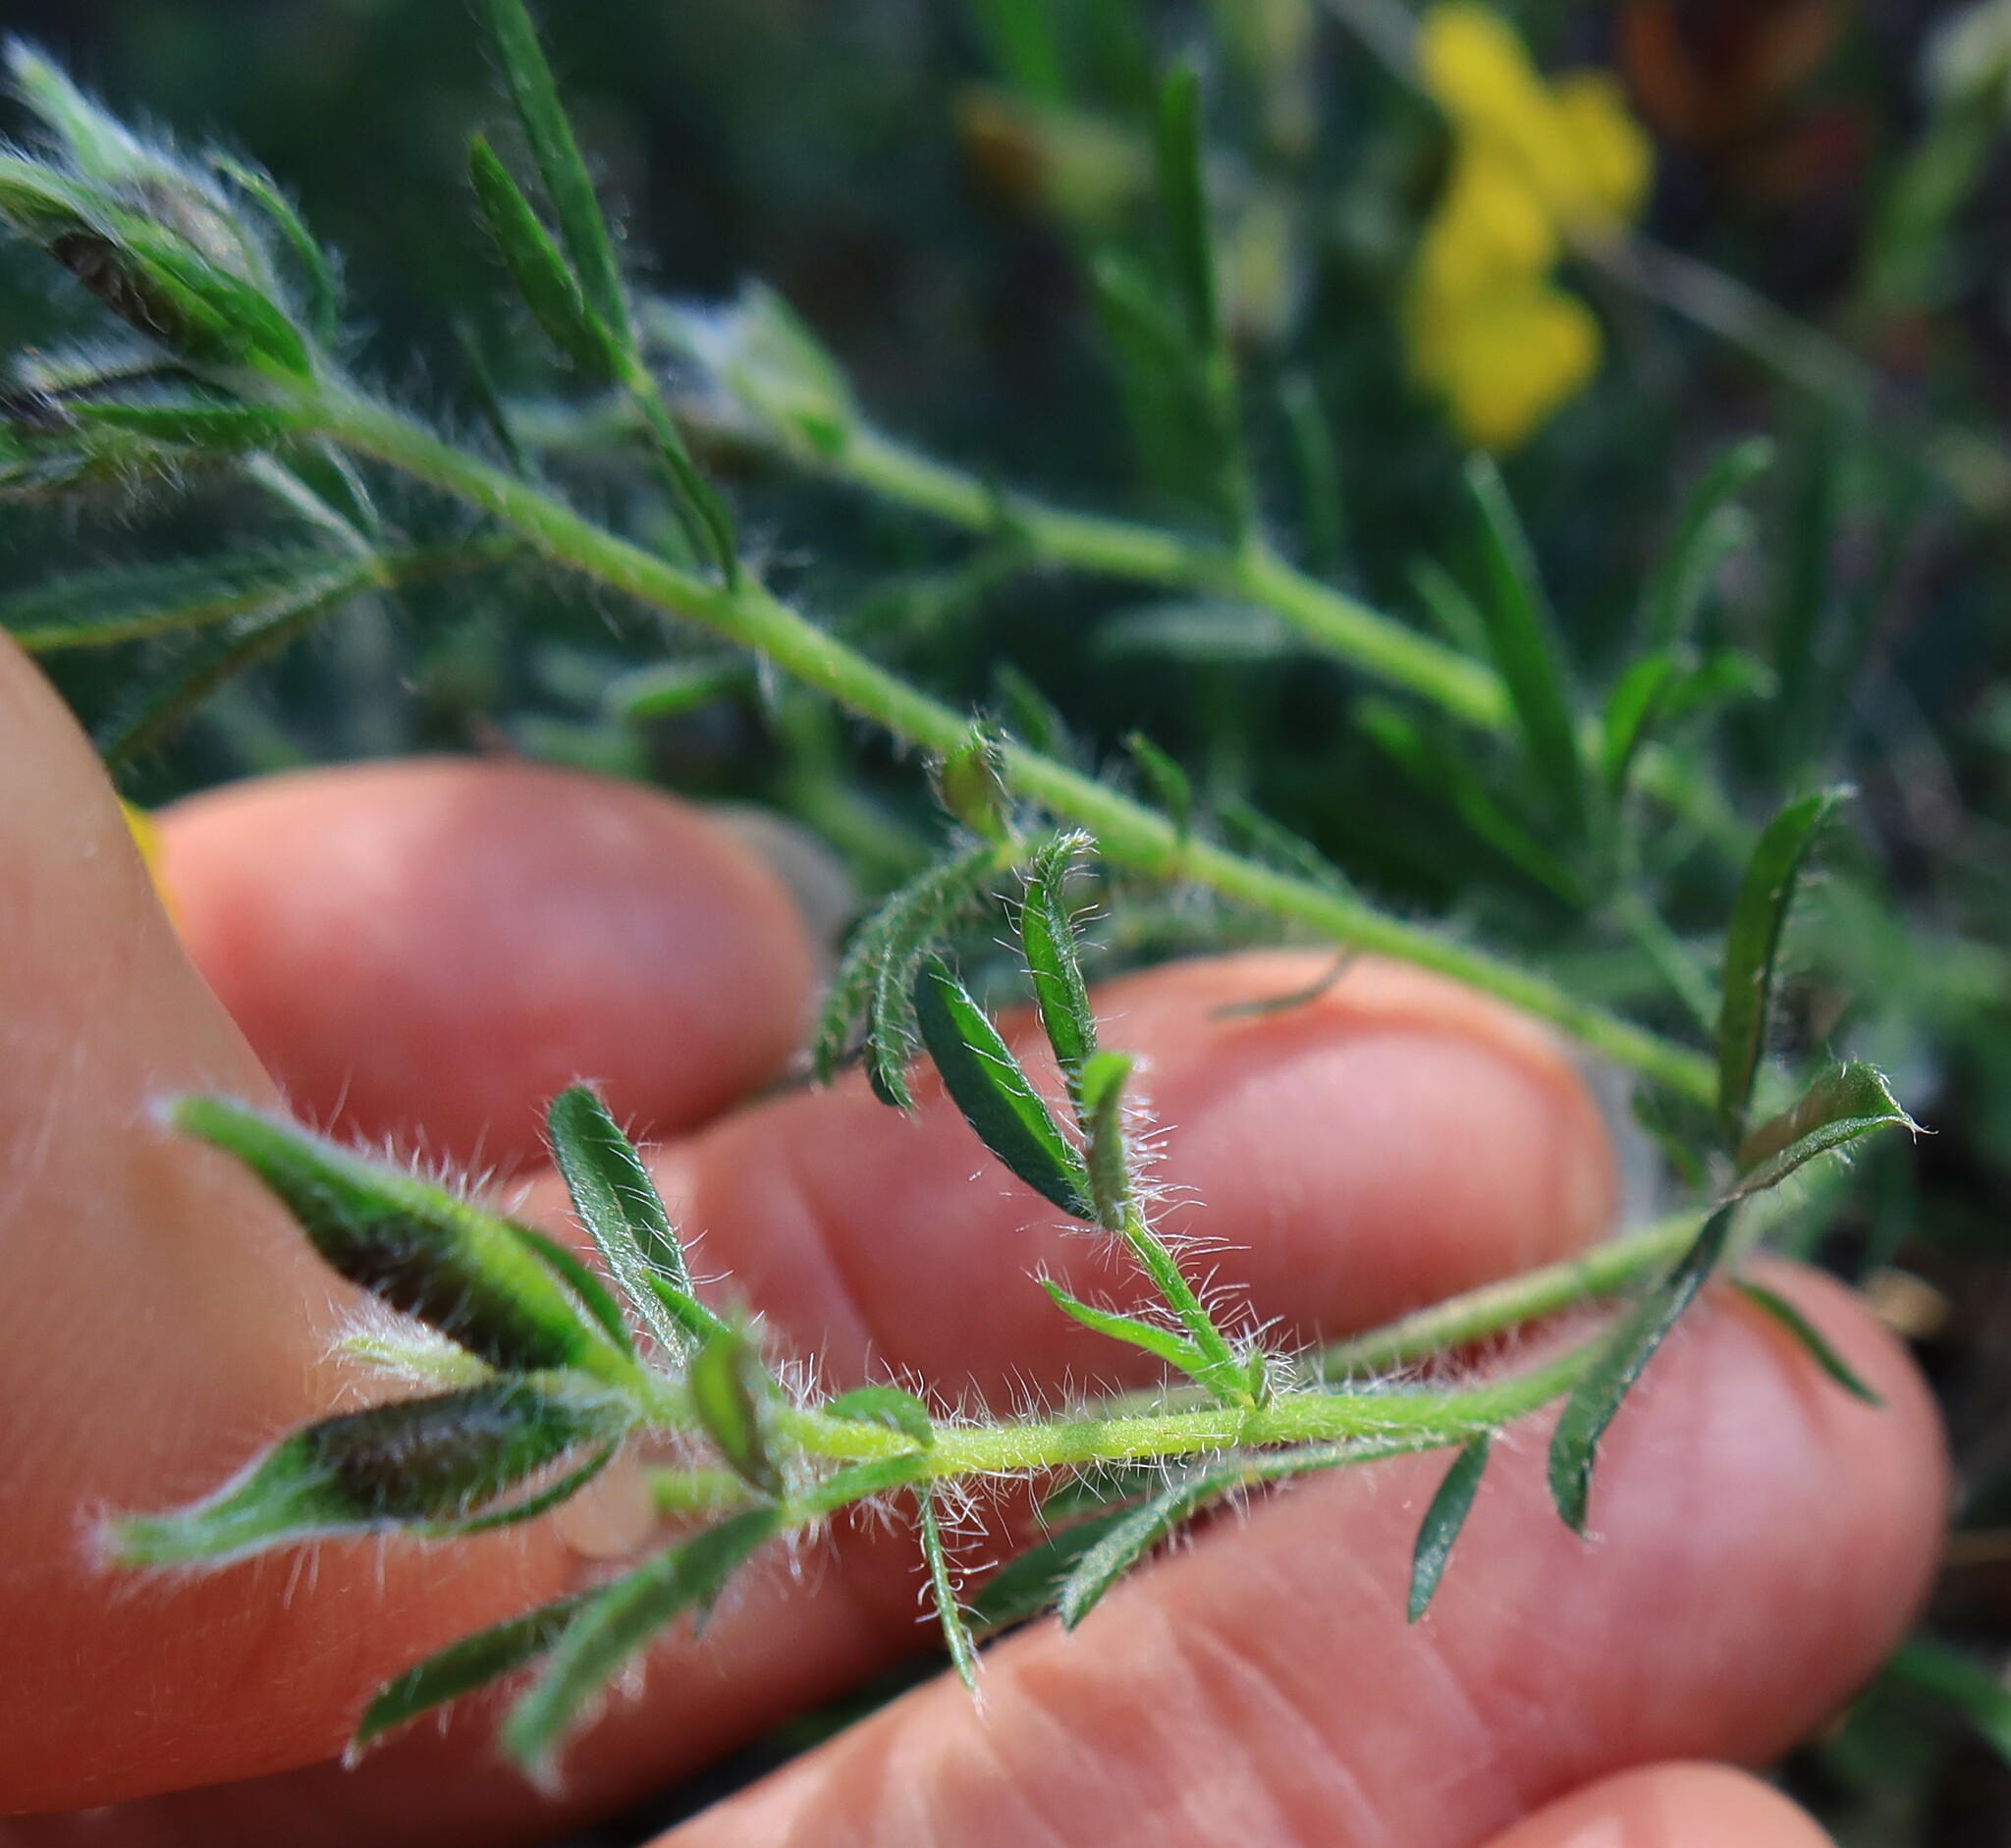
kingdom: Plantae
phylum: Tracheophyta
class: Magnoliopsida
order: Fabales
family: Fabaceae
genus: Lotononis
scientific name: Lotononis involucrata
